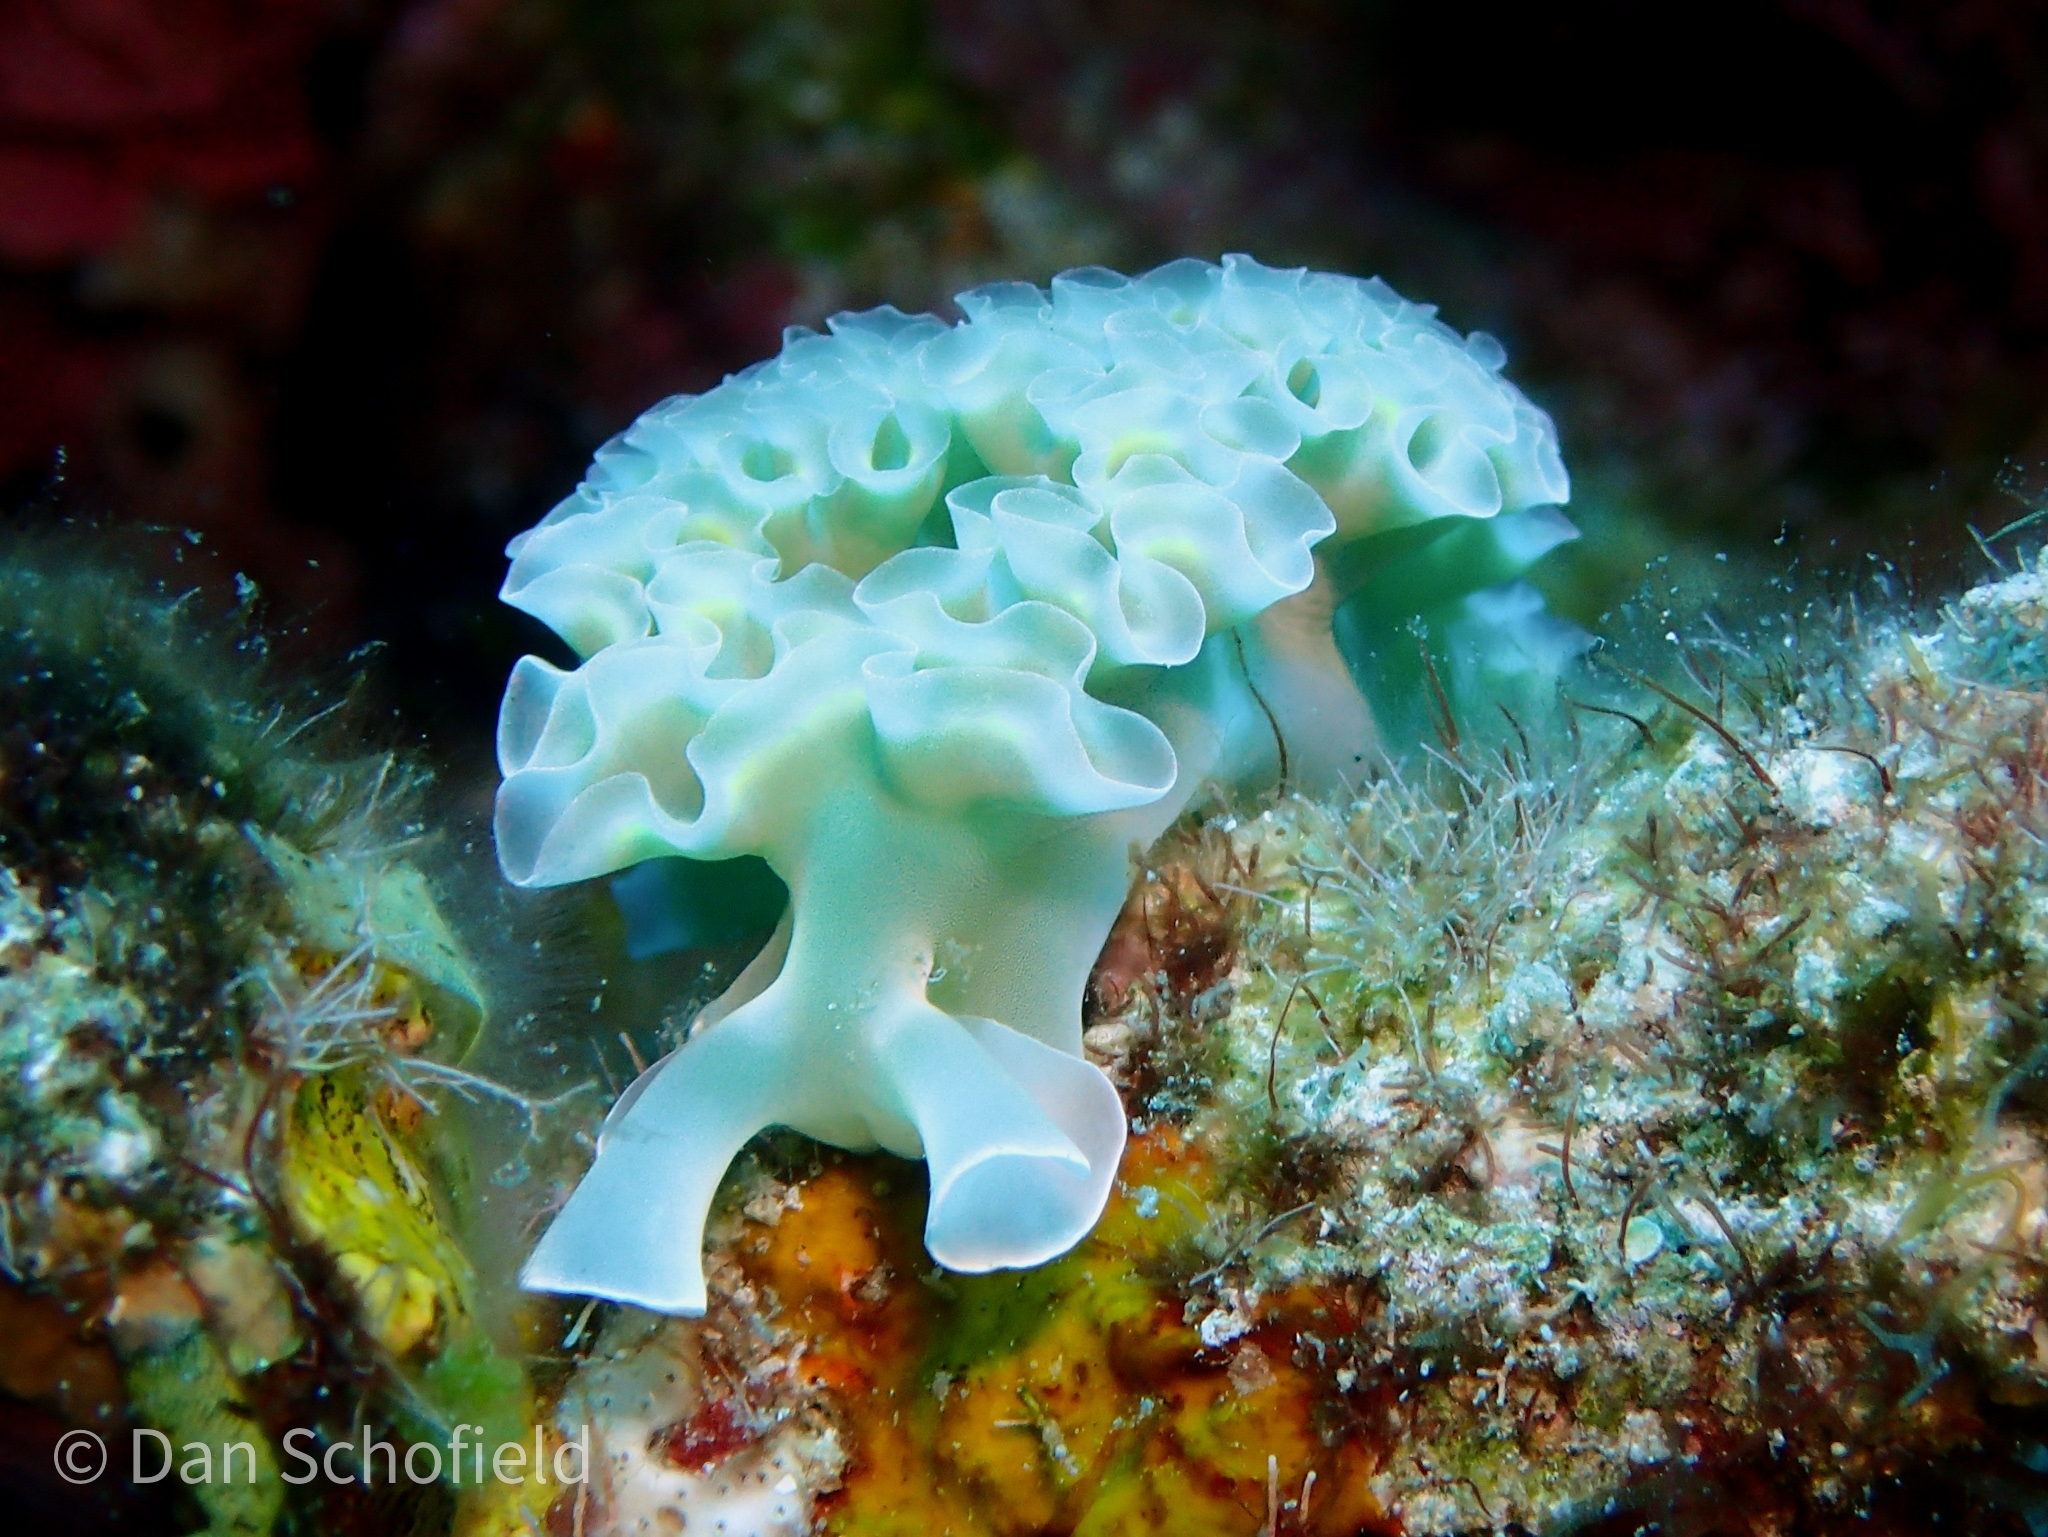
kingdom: Animalia
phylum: Mollusca
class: Gastropoda
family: Plakobranchidae
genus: Elysia
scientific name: Elysia crispata
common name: Lettuce slug
